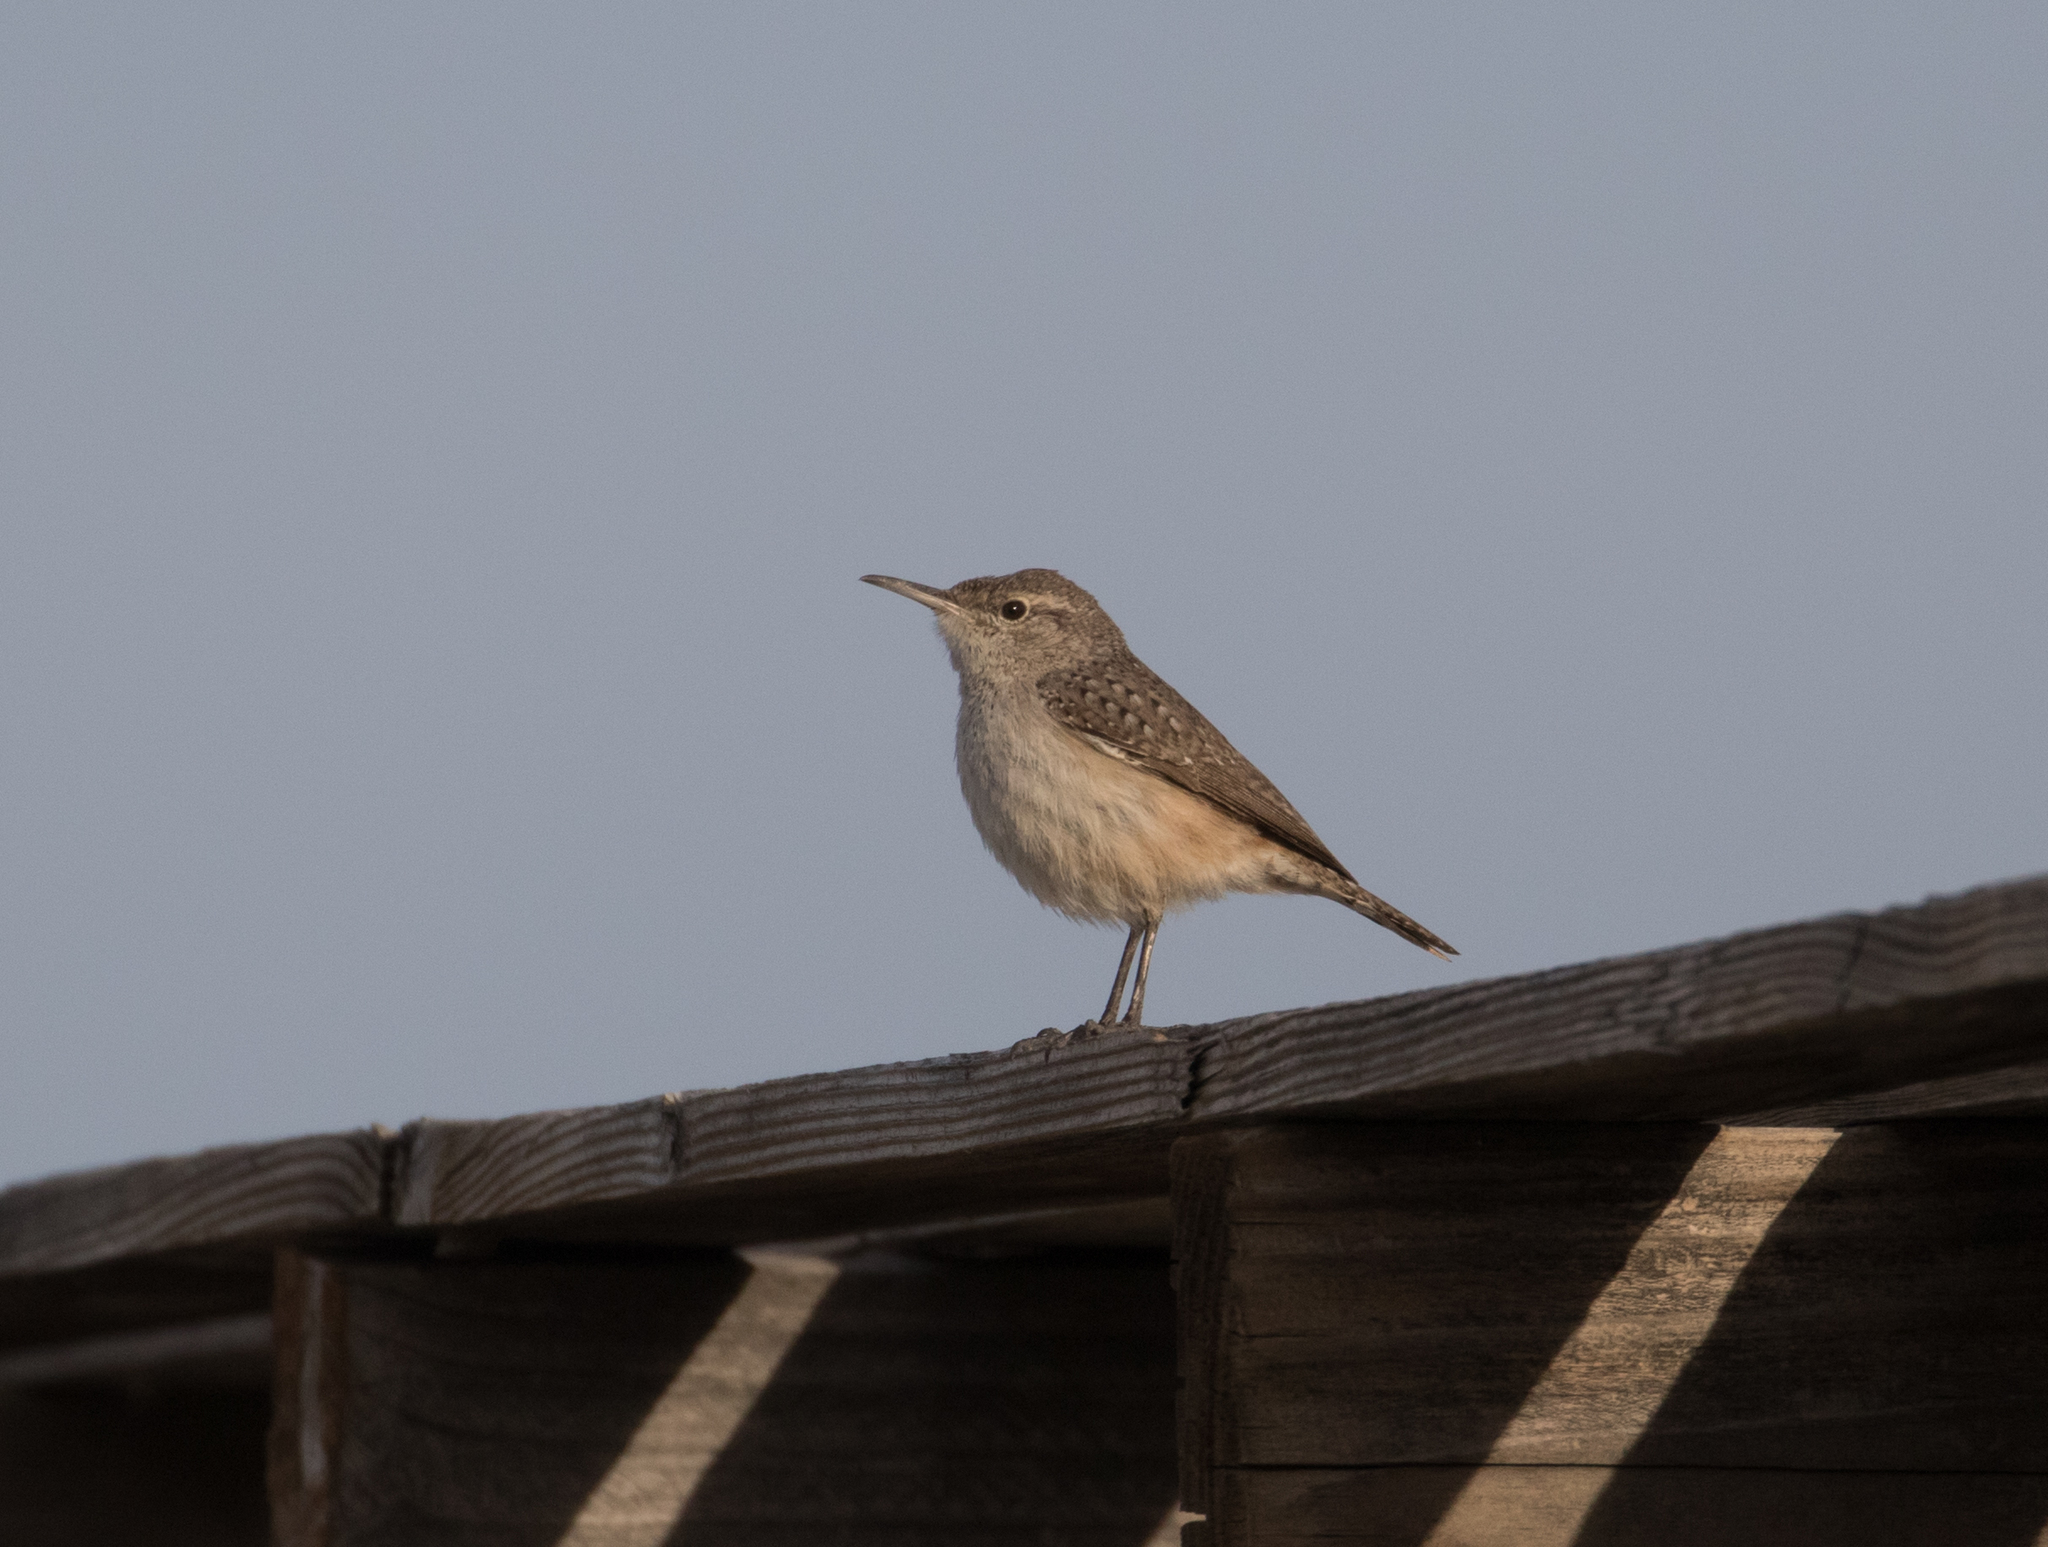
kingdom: Animalia
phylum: Chordata
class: Aves
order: Passeriformes
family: Troglodytidae
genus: Salpinctes
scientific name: Salpinctes obsoletus
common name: Rock wren
